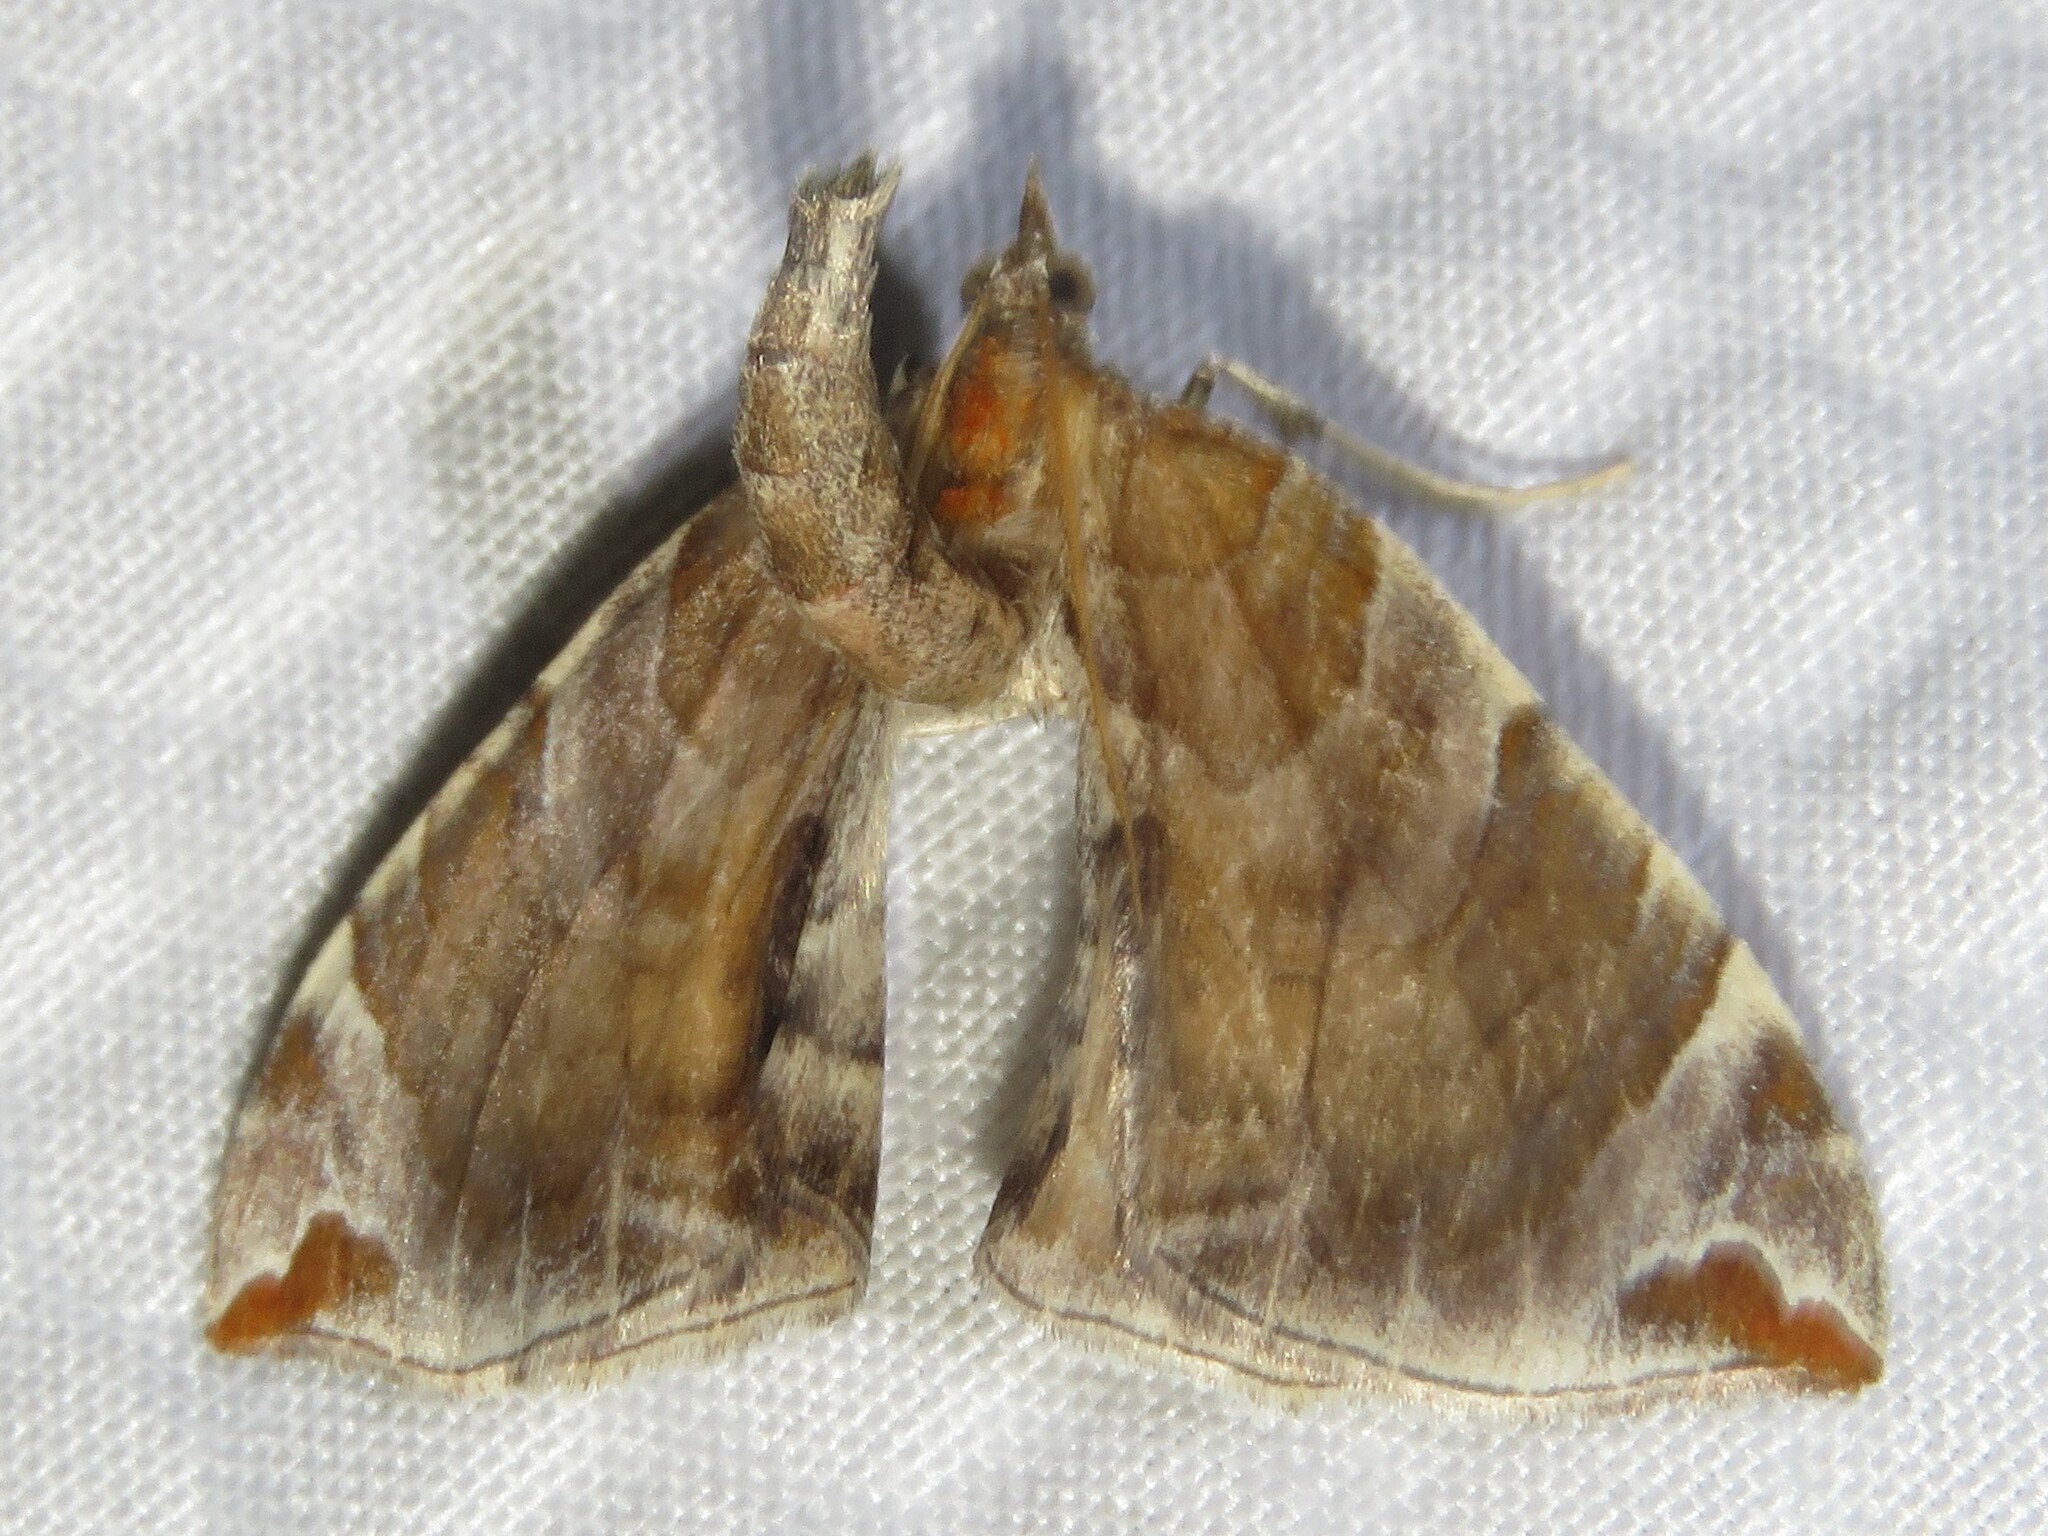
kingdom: Animalia
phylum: Arthropoda
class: Insecta
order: Lepidoptera
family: Geometridae
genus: Eulithis
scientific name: Eulithis molliculata
